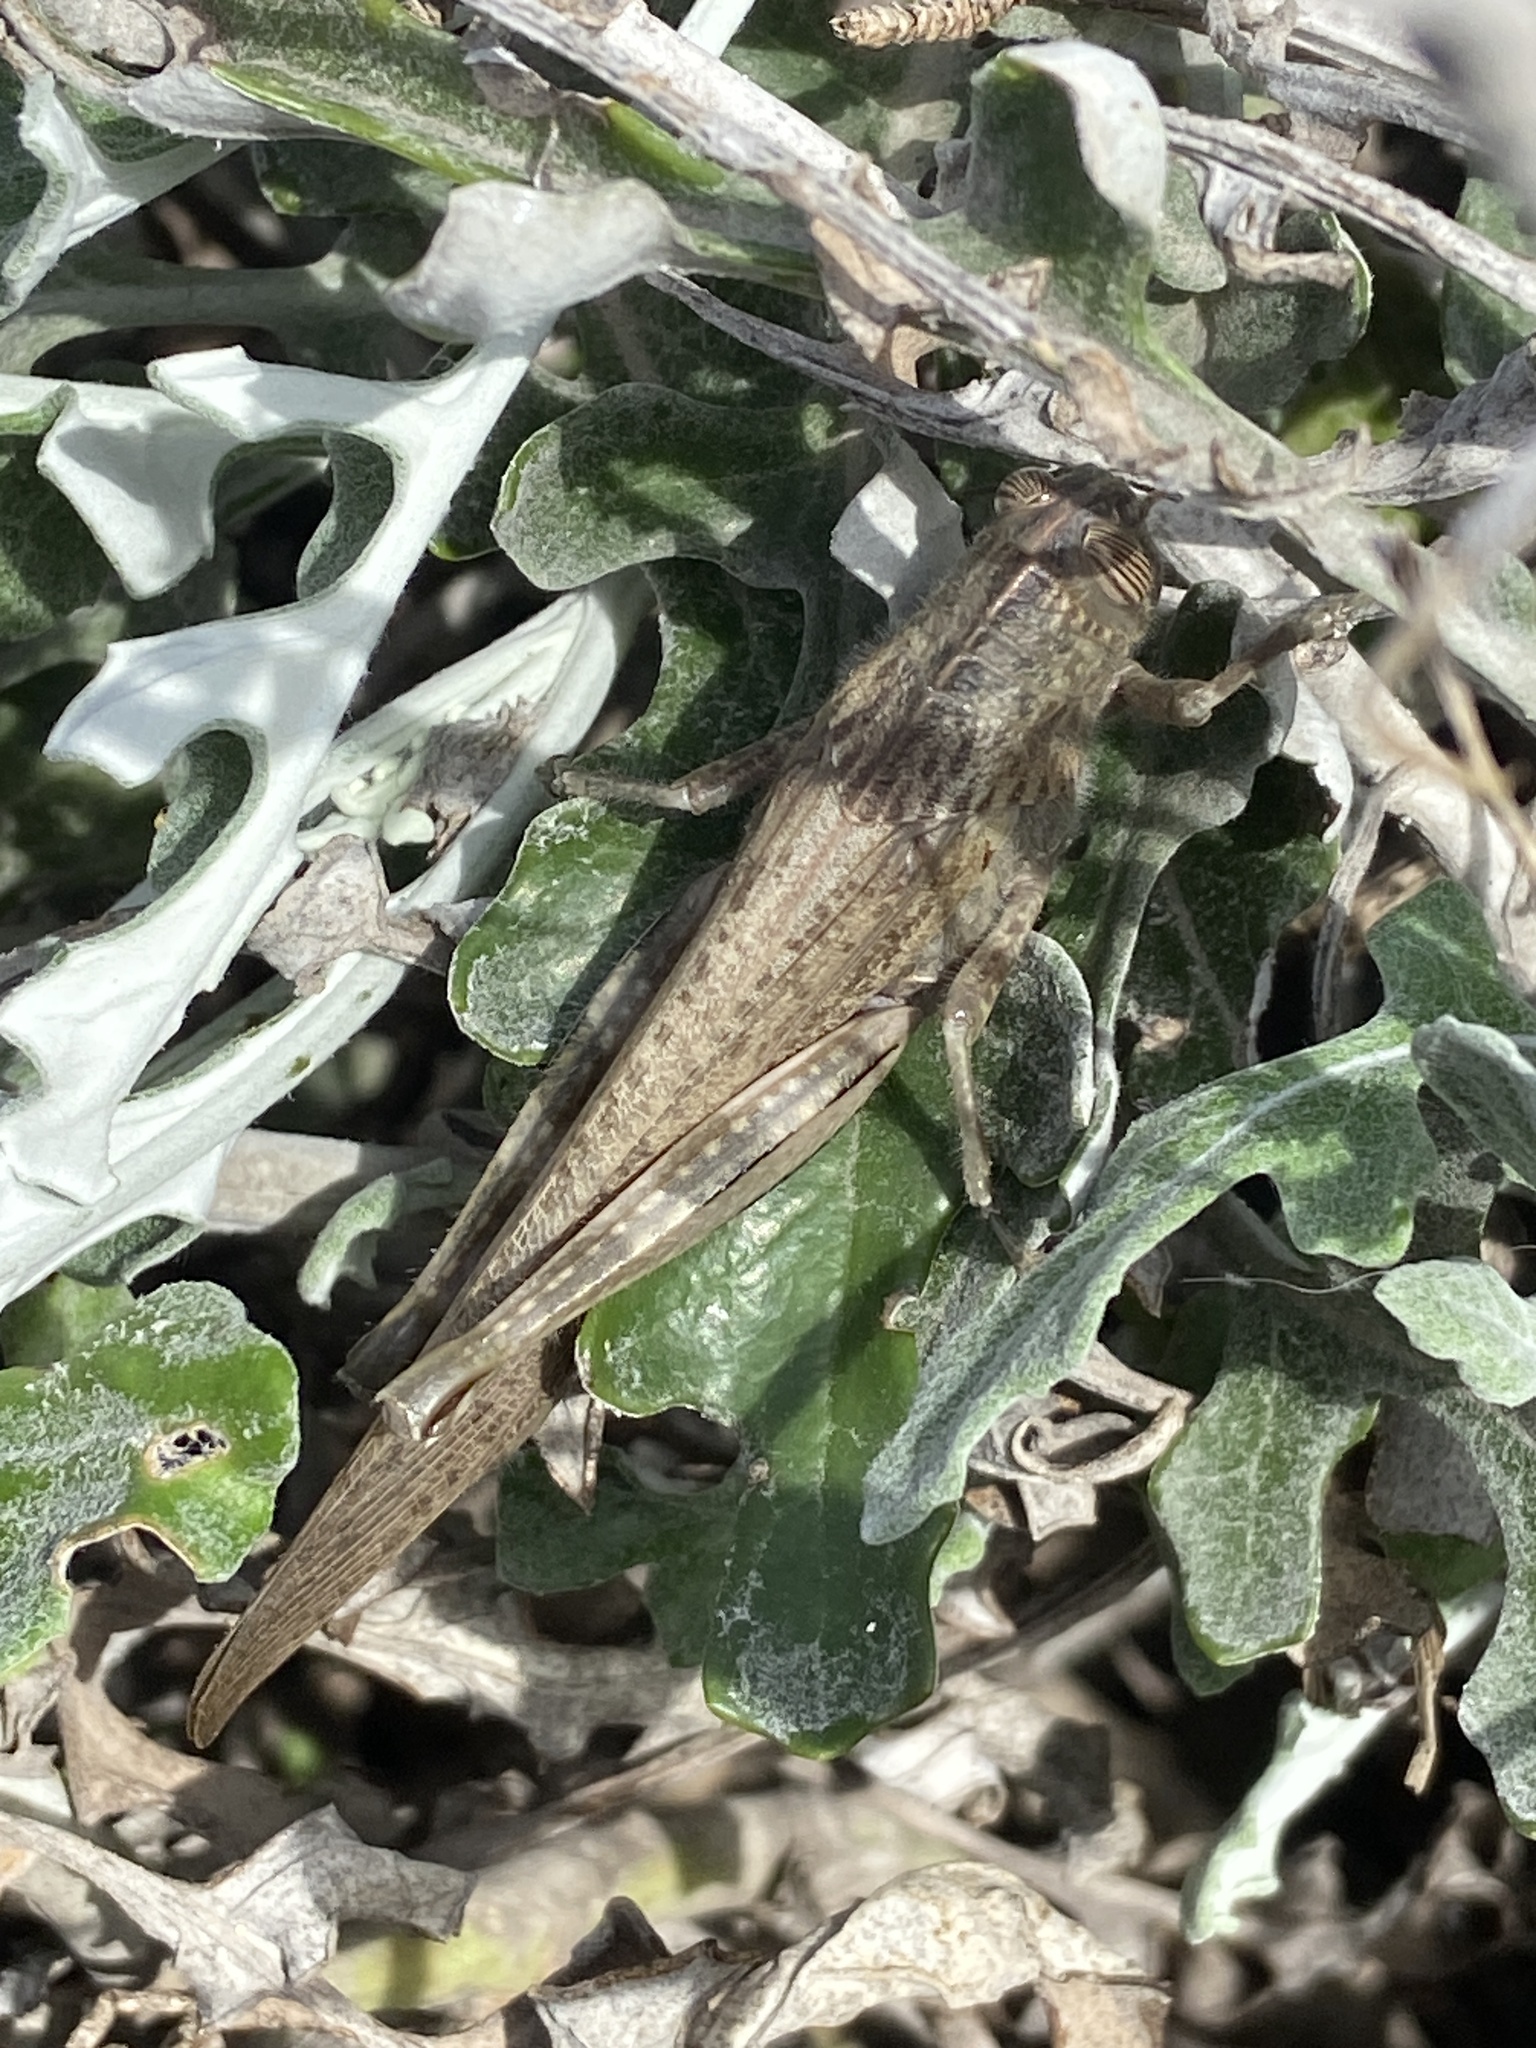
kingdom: Animalia
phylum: Arthropoda
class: Insecta
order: Orthoptera
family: Acrididae
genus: Anacridium
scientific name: Anacridium aegyptium
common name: Egyptian grasshopper
